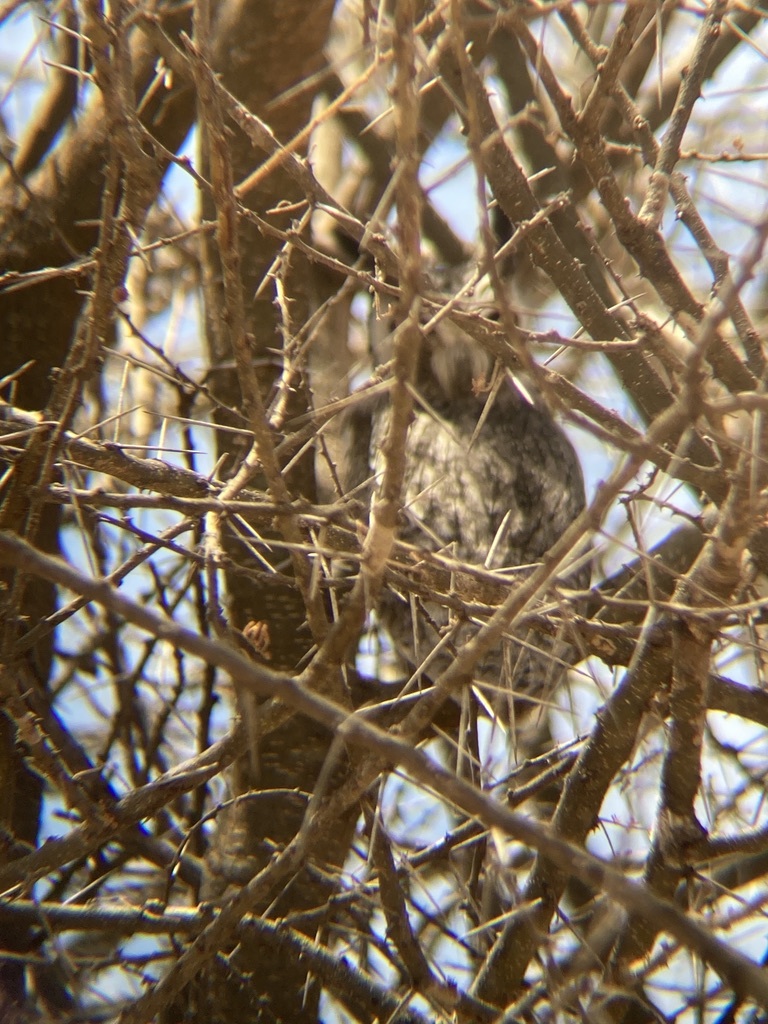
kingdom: Animalia
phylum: Chordata
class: Aves
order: Strigiformes
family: Strigidae
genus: Ptilopsis
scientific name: Ptilopsis granti
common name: Southern white-faced owl
